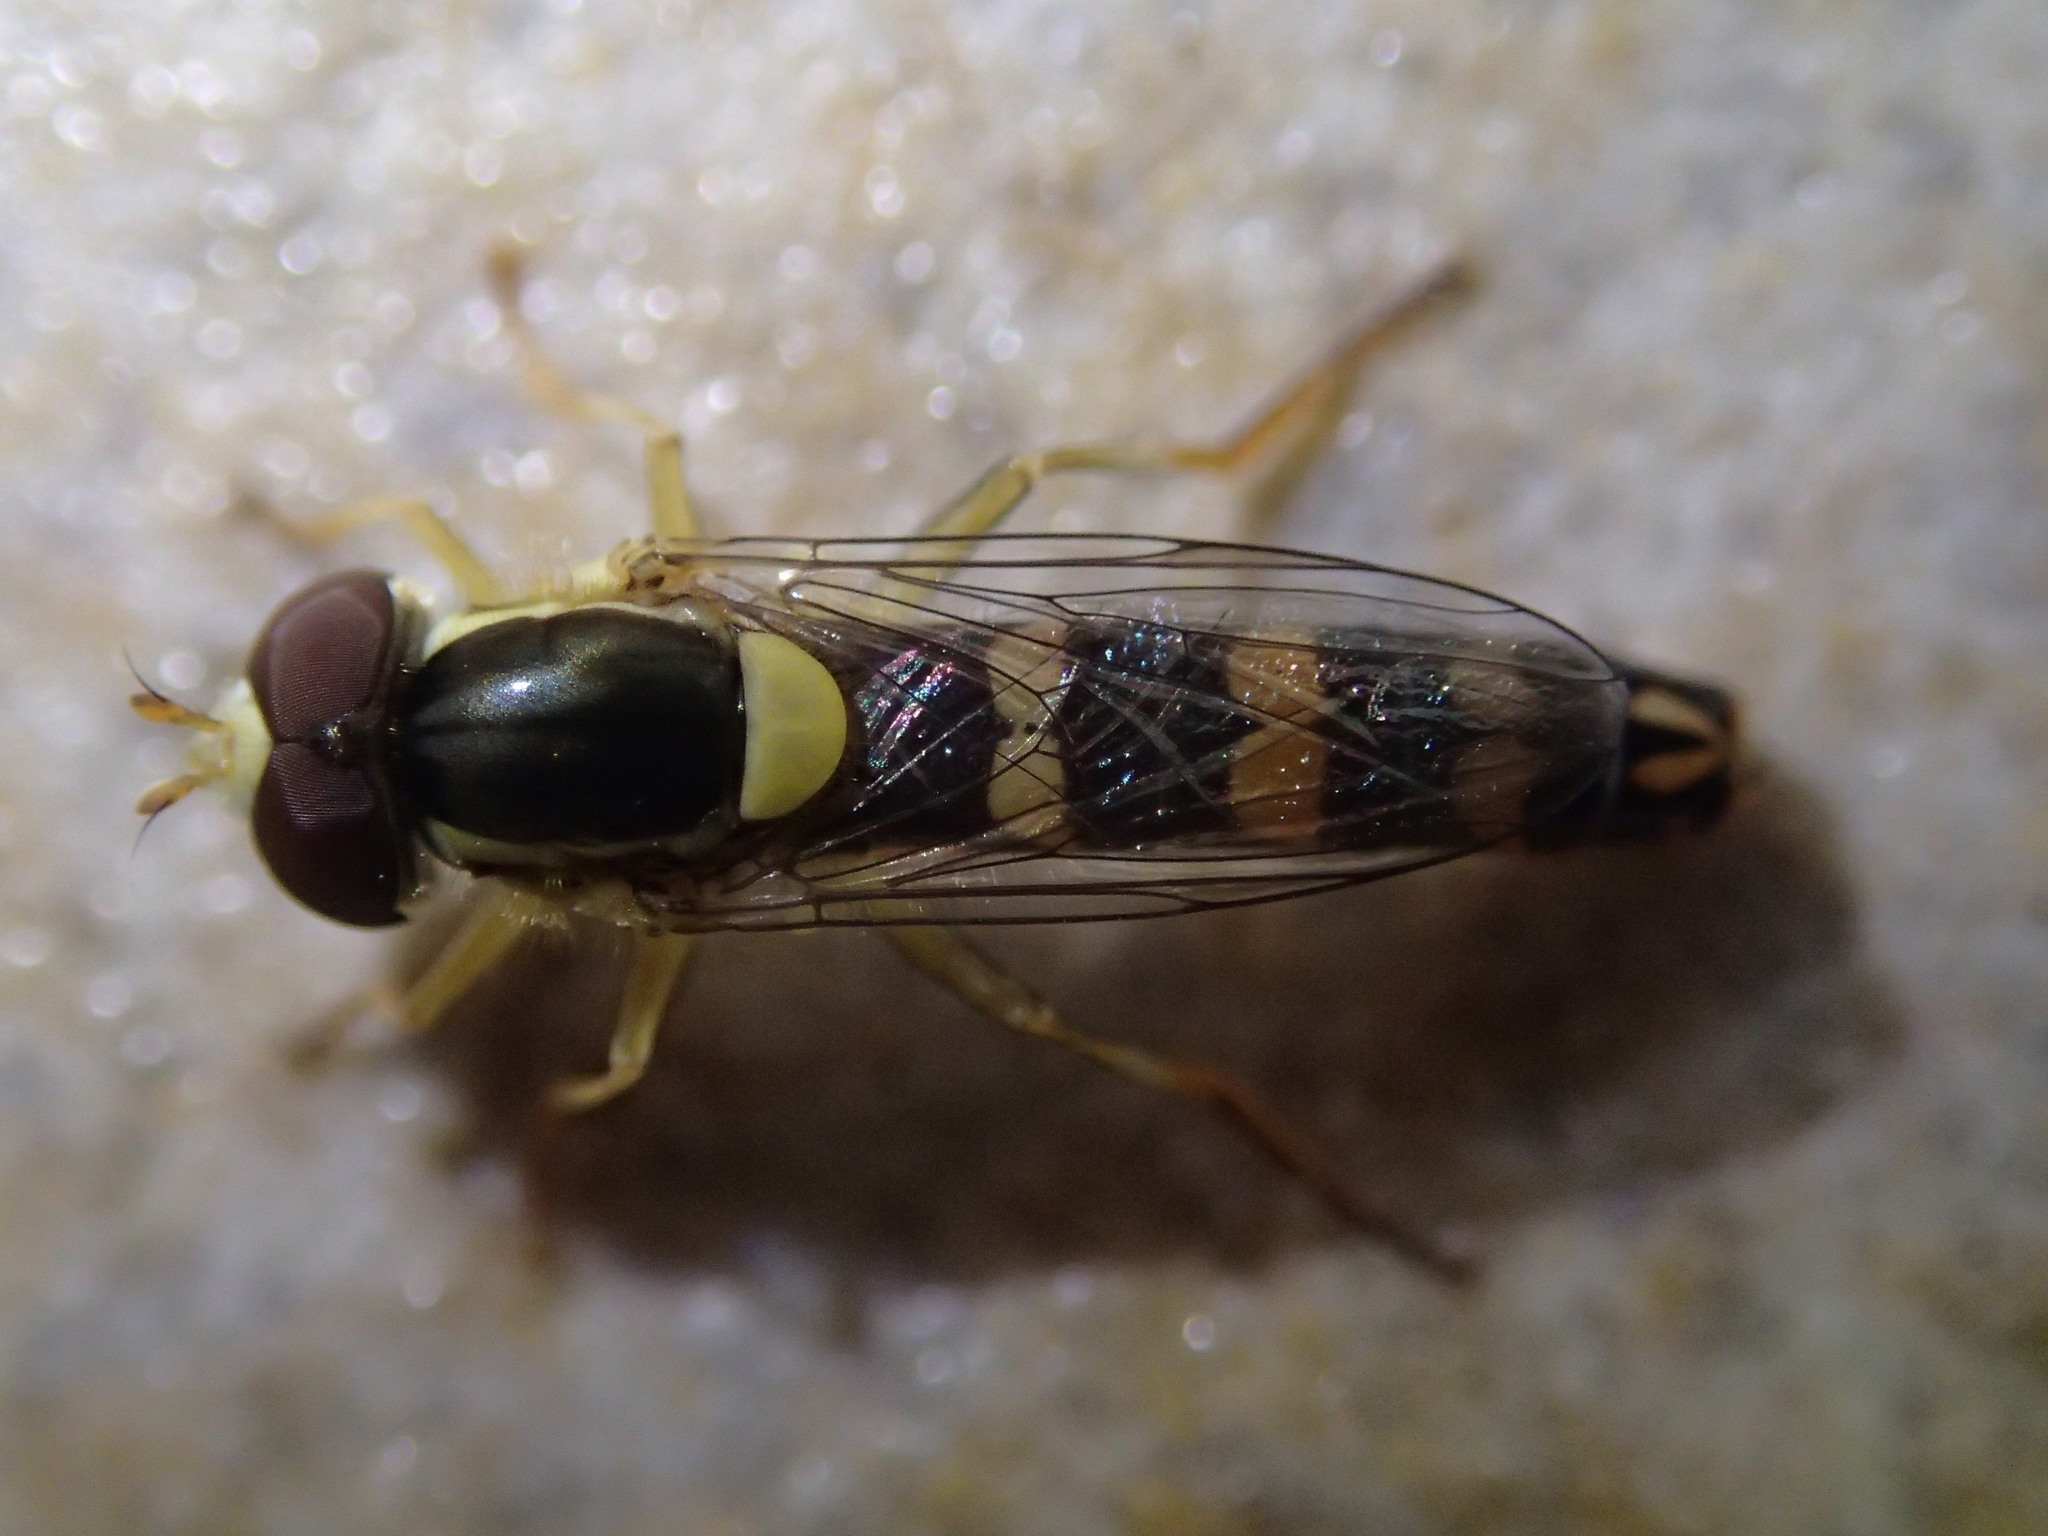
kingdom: Animalia
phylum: Arthropoda
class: Insecta
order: Diptera
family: Syrphidae
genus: Sphaerophoria
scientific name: Sphaerophoria scripta
